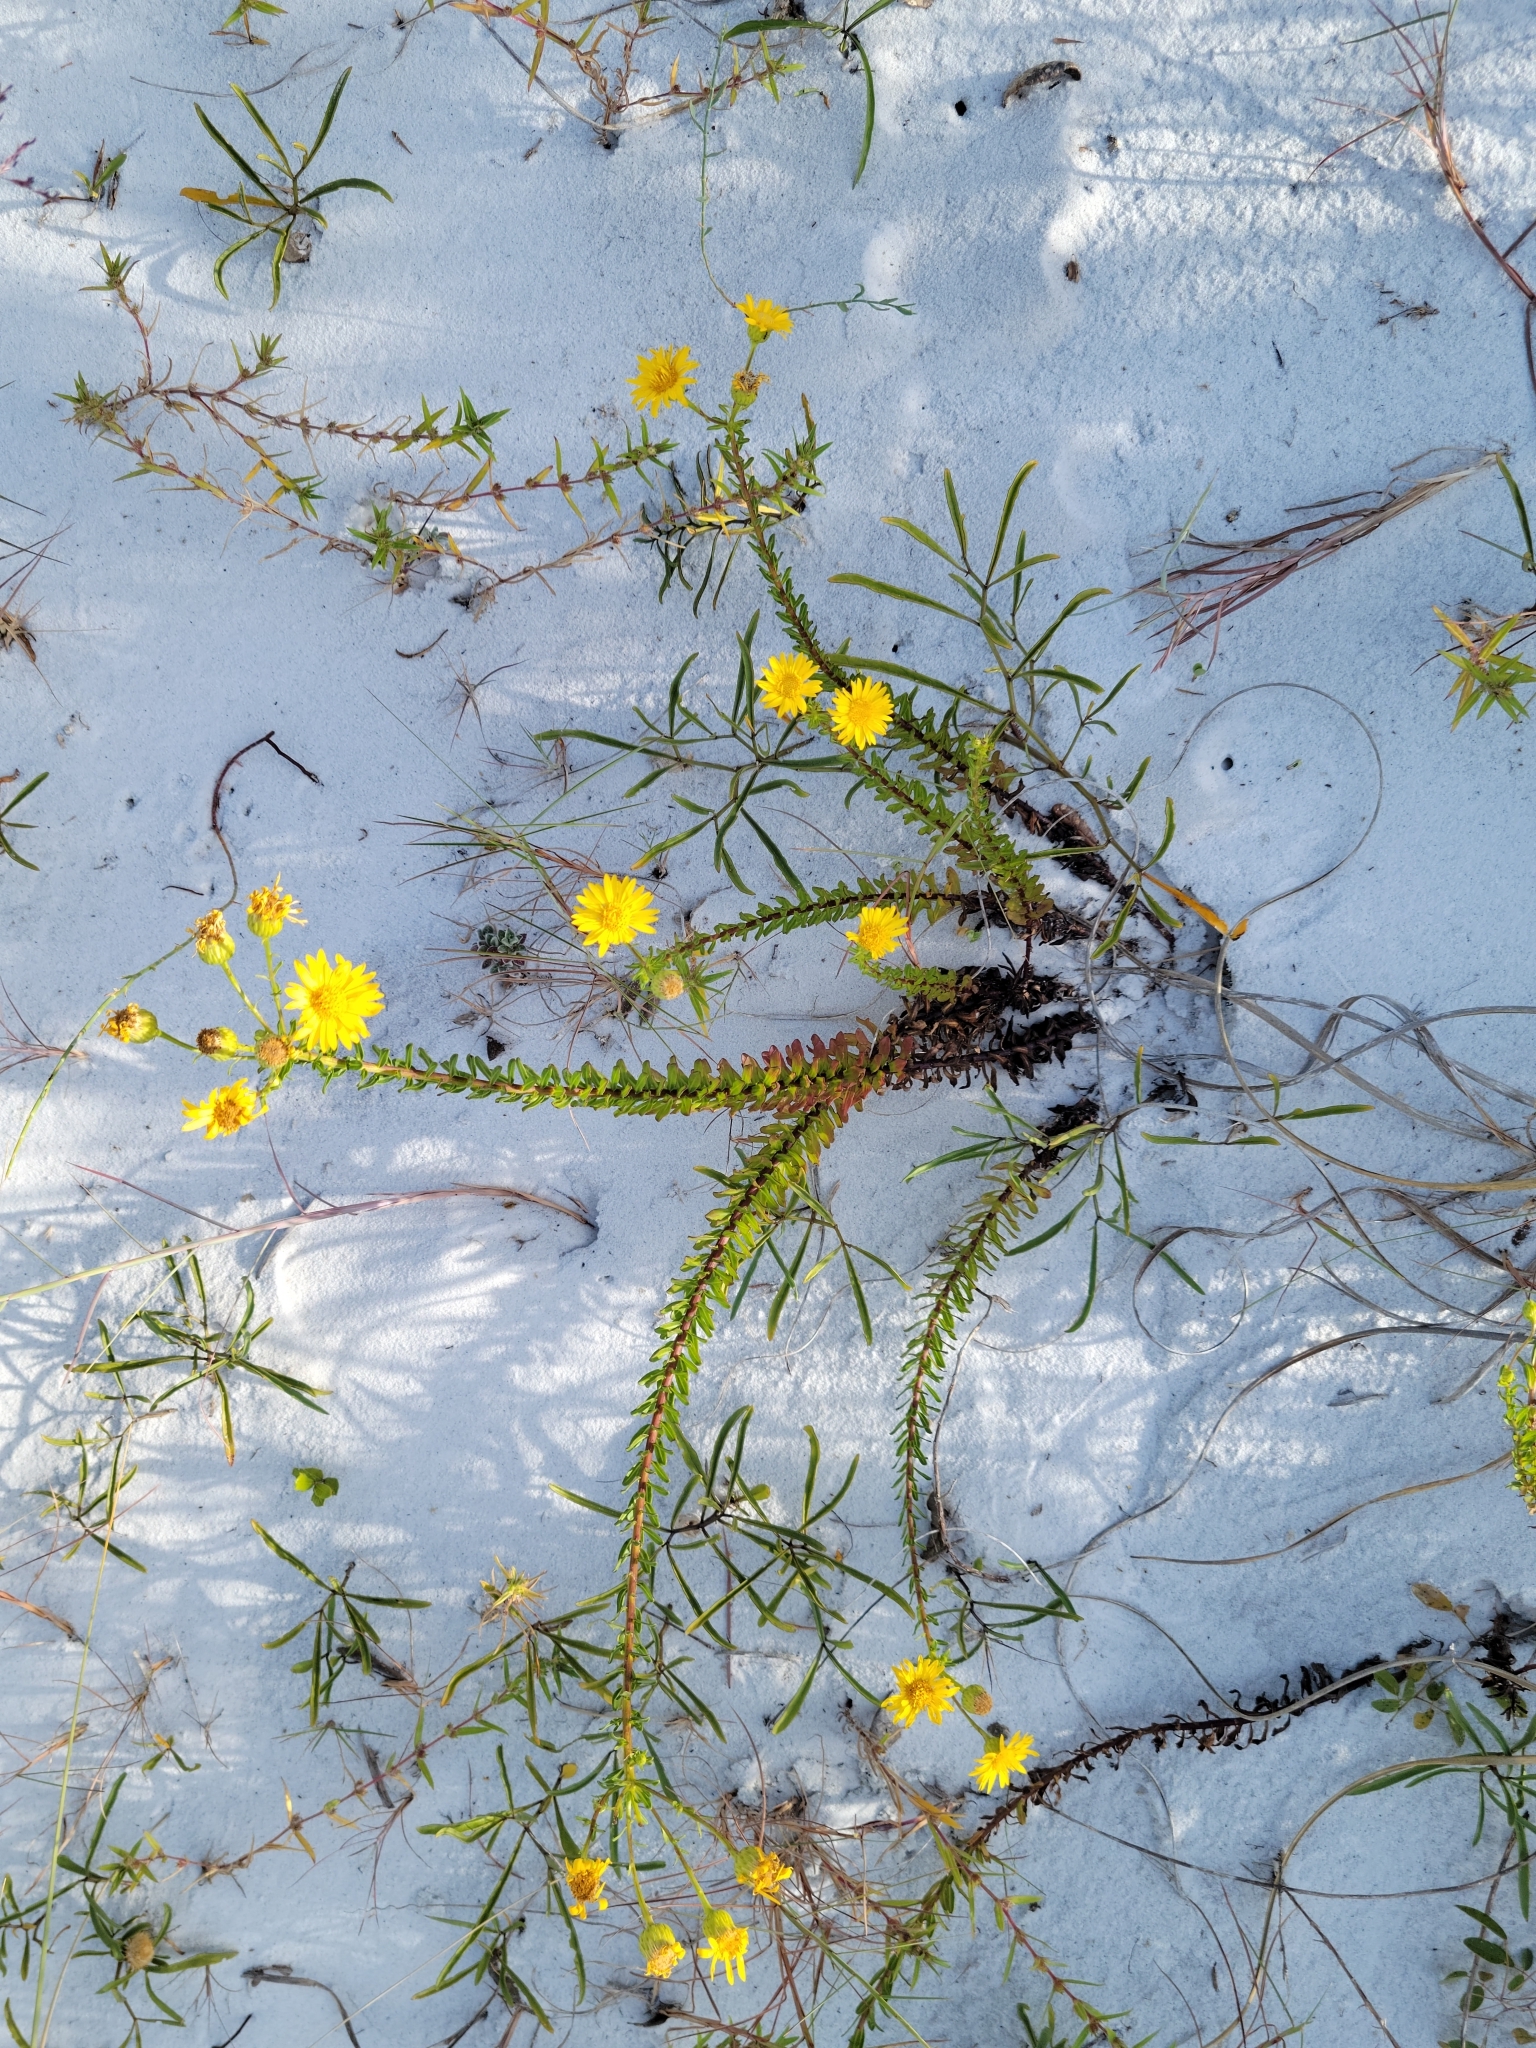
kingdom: Plantae
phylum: Tracheophyta
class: Magnoliopsida
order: Asterales
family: Asteraceae
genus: Chrysopsis
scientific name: Chrysopsis gossypina
